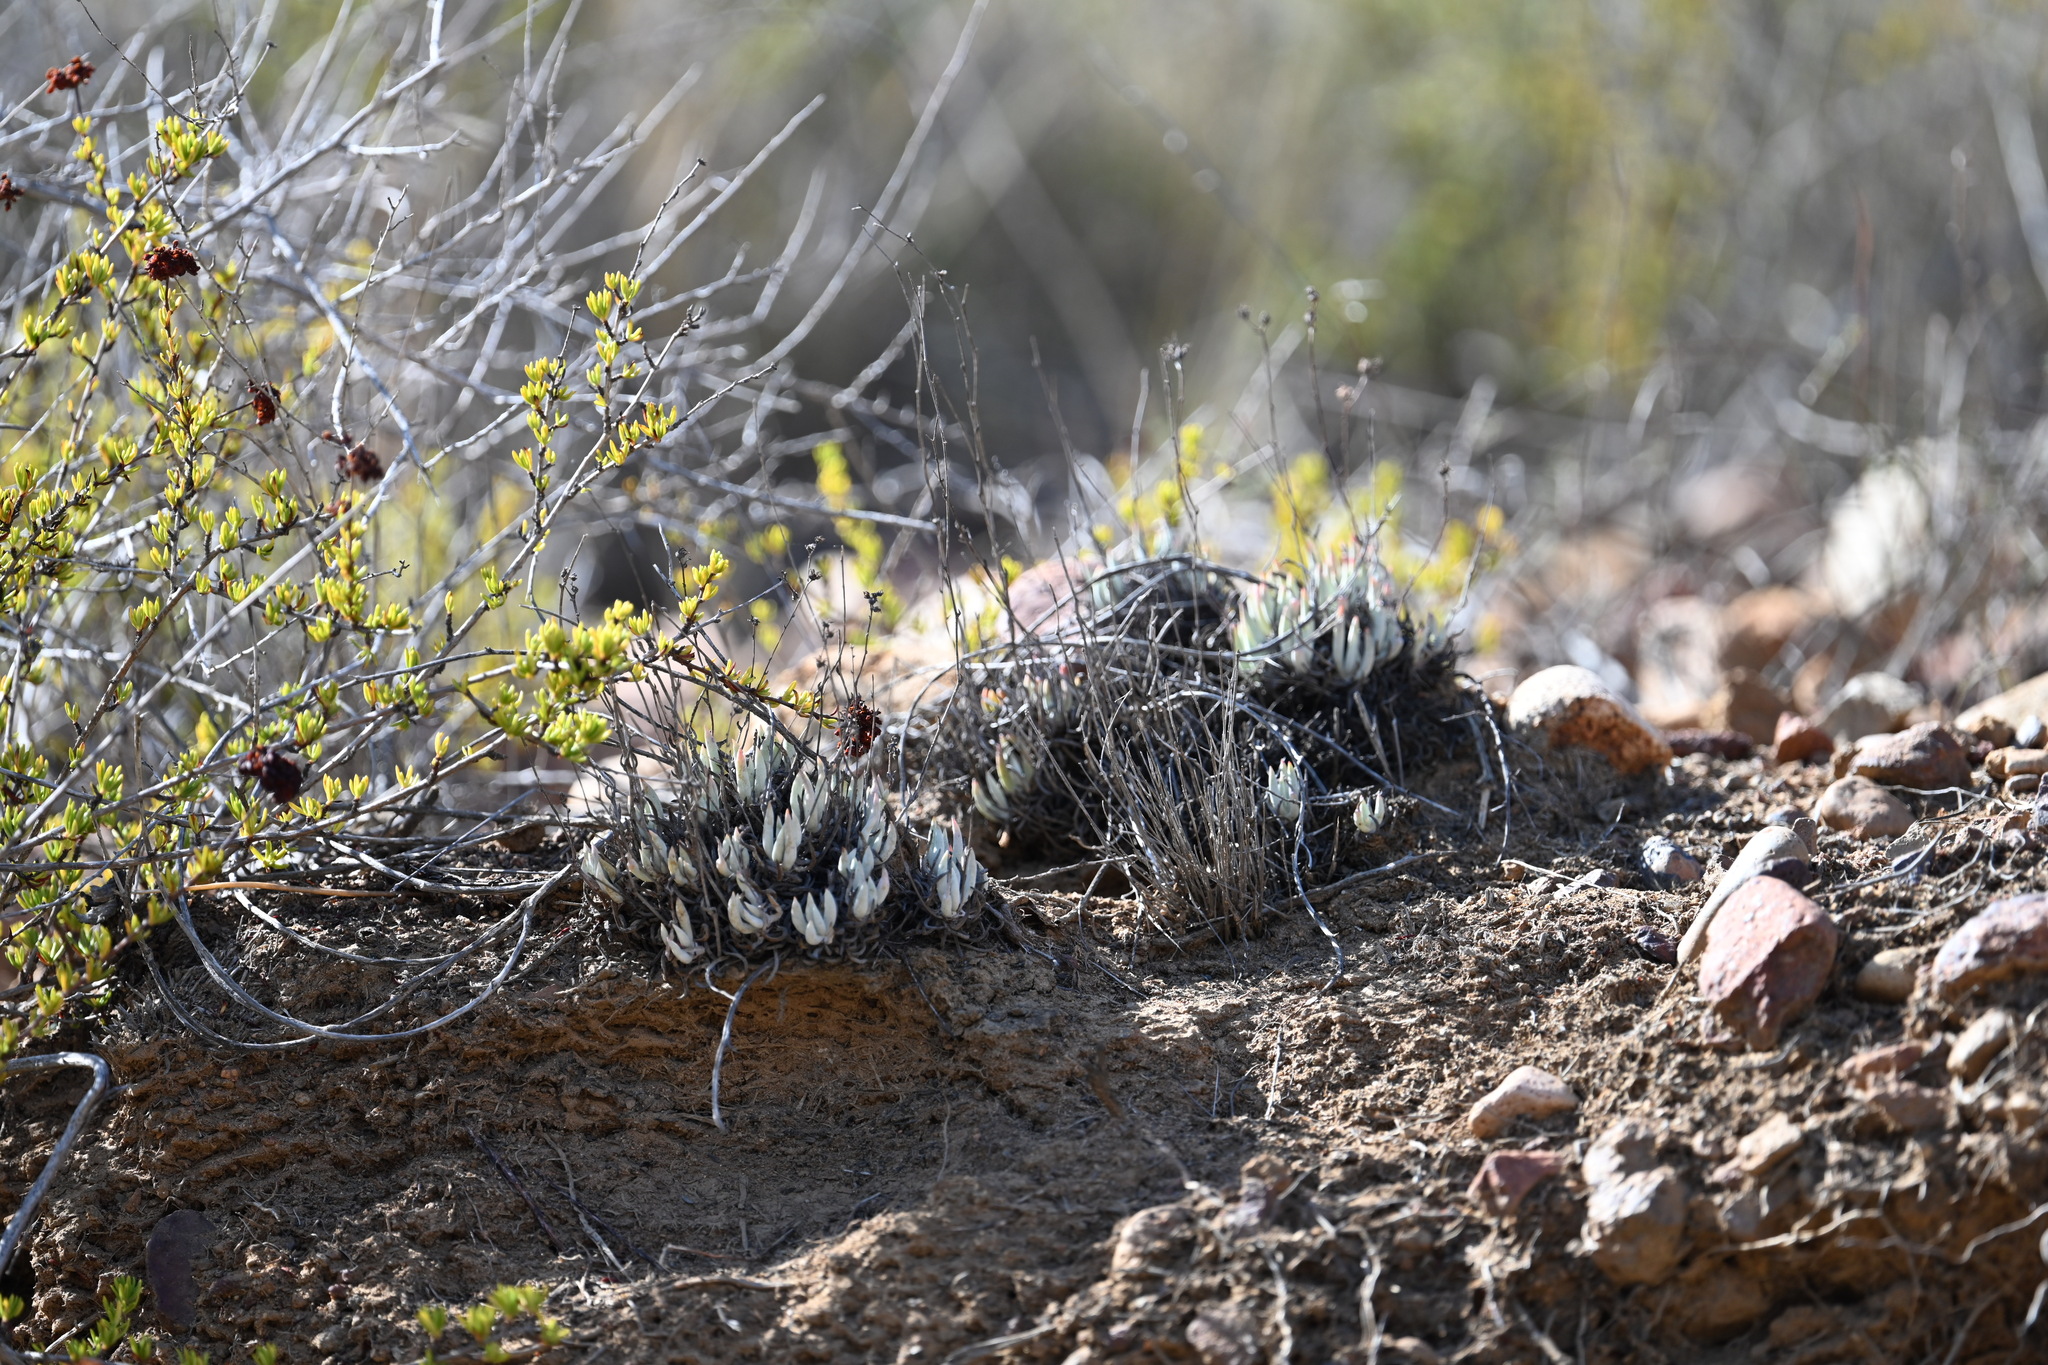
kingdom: Plantae
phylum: Tracheophyta
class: Magnoliopsida
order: Saxifragales
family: Crassulaceae
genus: Dudleya
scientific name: Dudleya attenuata
